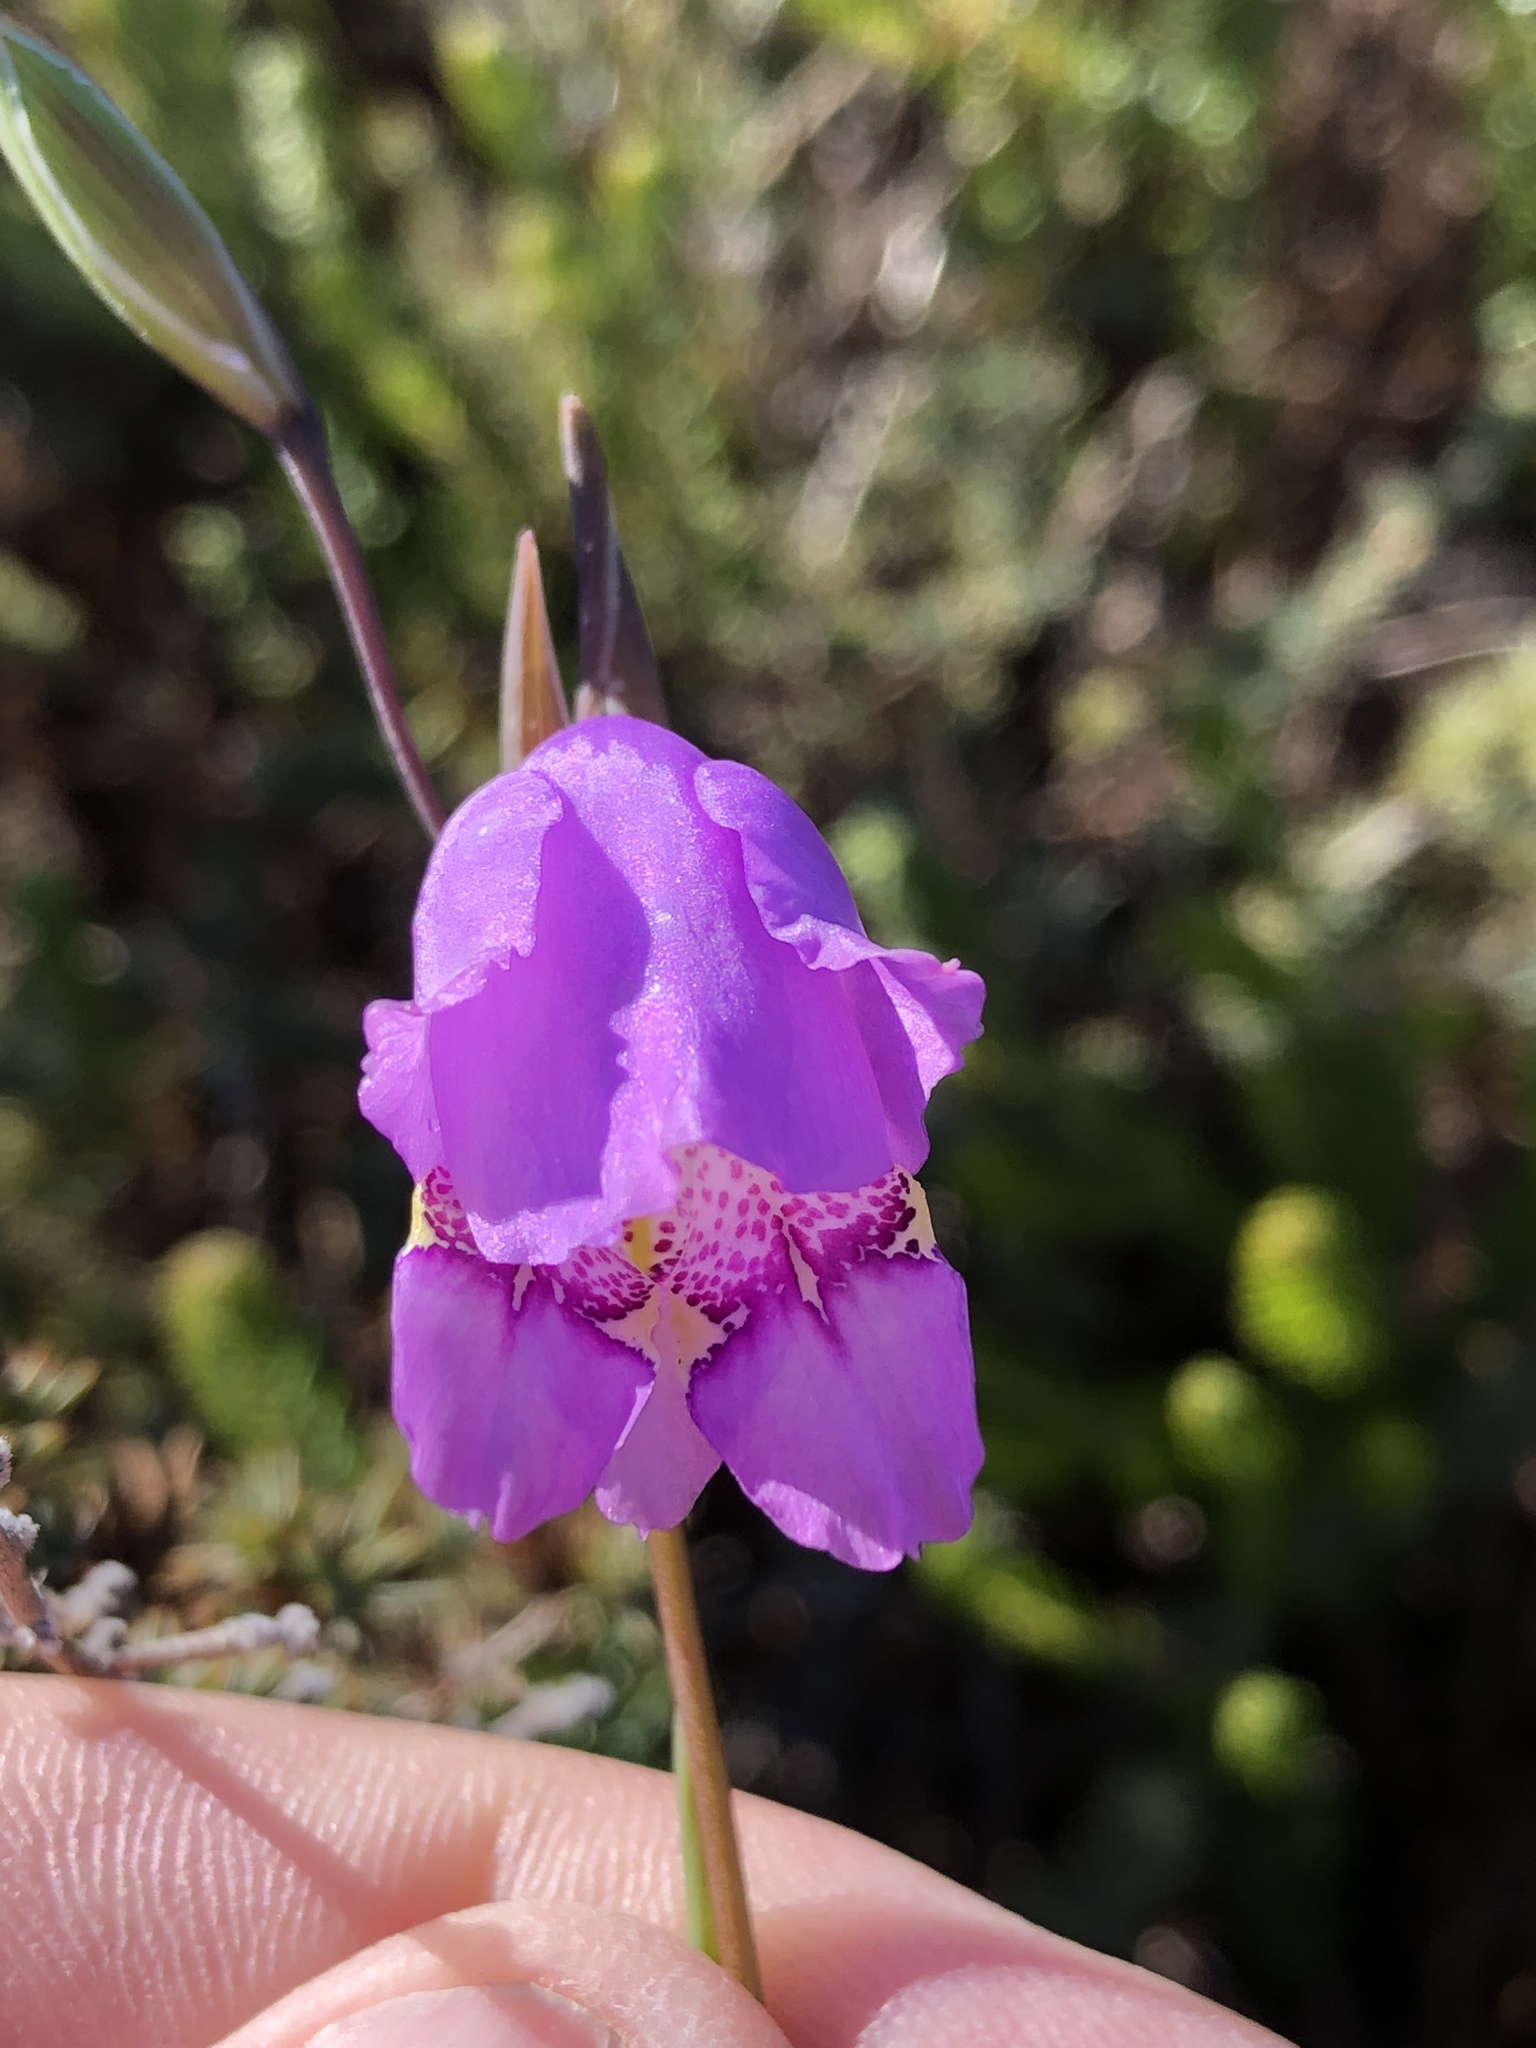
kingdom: Plantae
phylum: Tracheophyta
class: Liliopsida
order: Asparagales
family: Iridaceae
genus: Gladiolus
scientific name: Gladiolus bullatus
